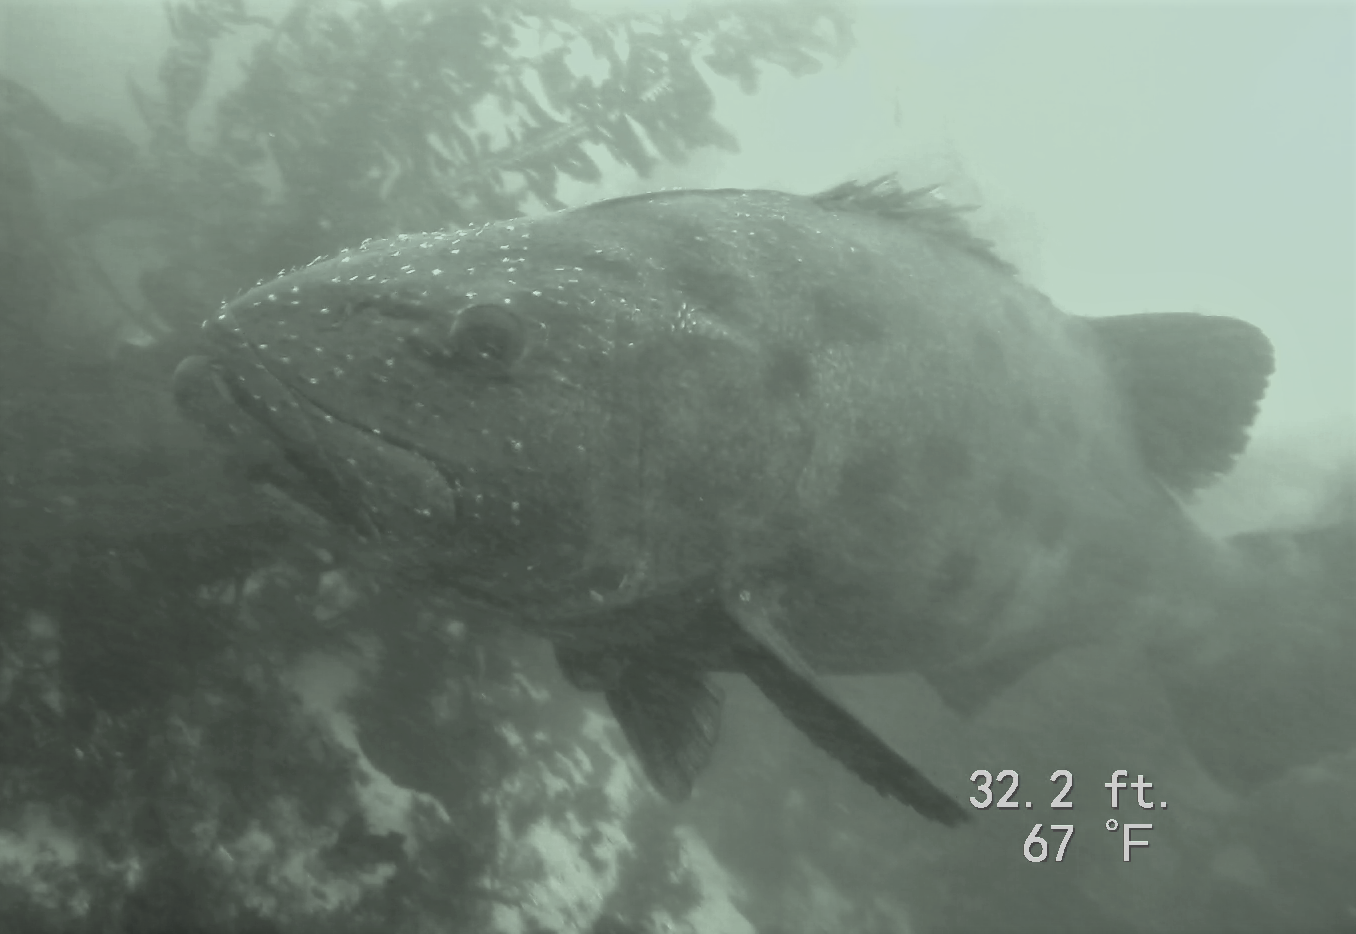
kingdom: Animalia
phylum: Chordata
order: Perciformes
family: Polyprionidae
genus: Stereolepis
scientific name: Stereolepis gigas
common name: Giant sea bass
